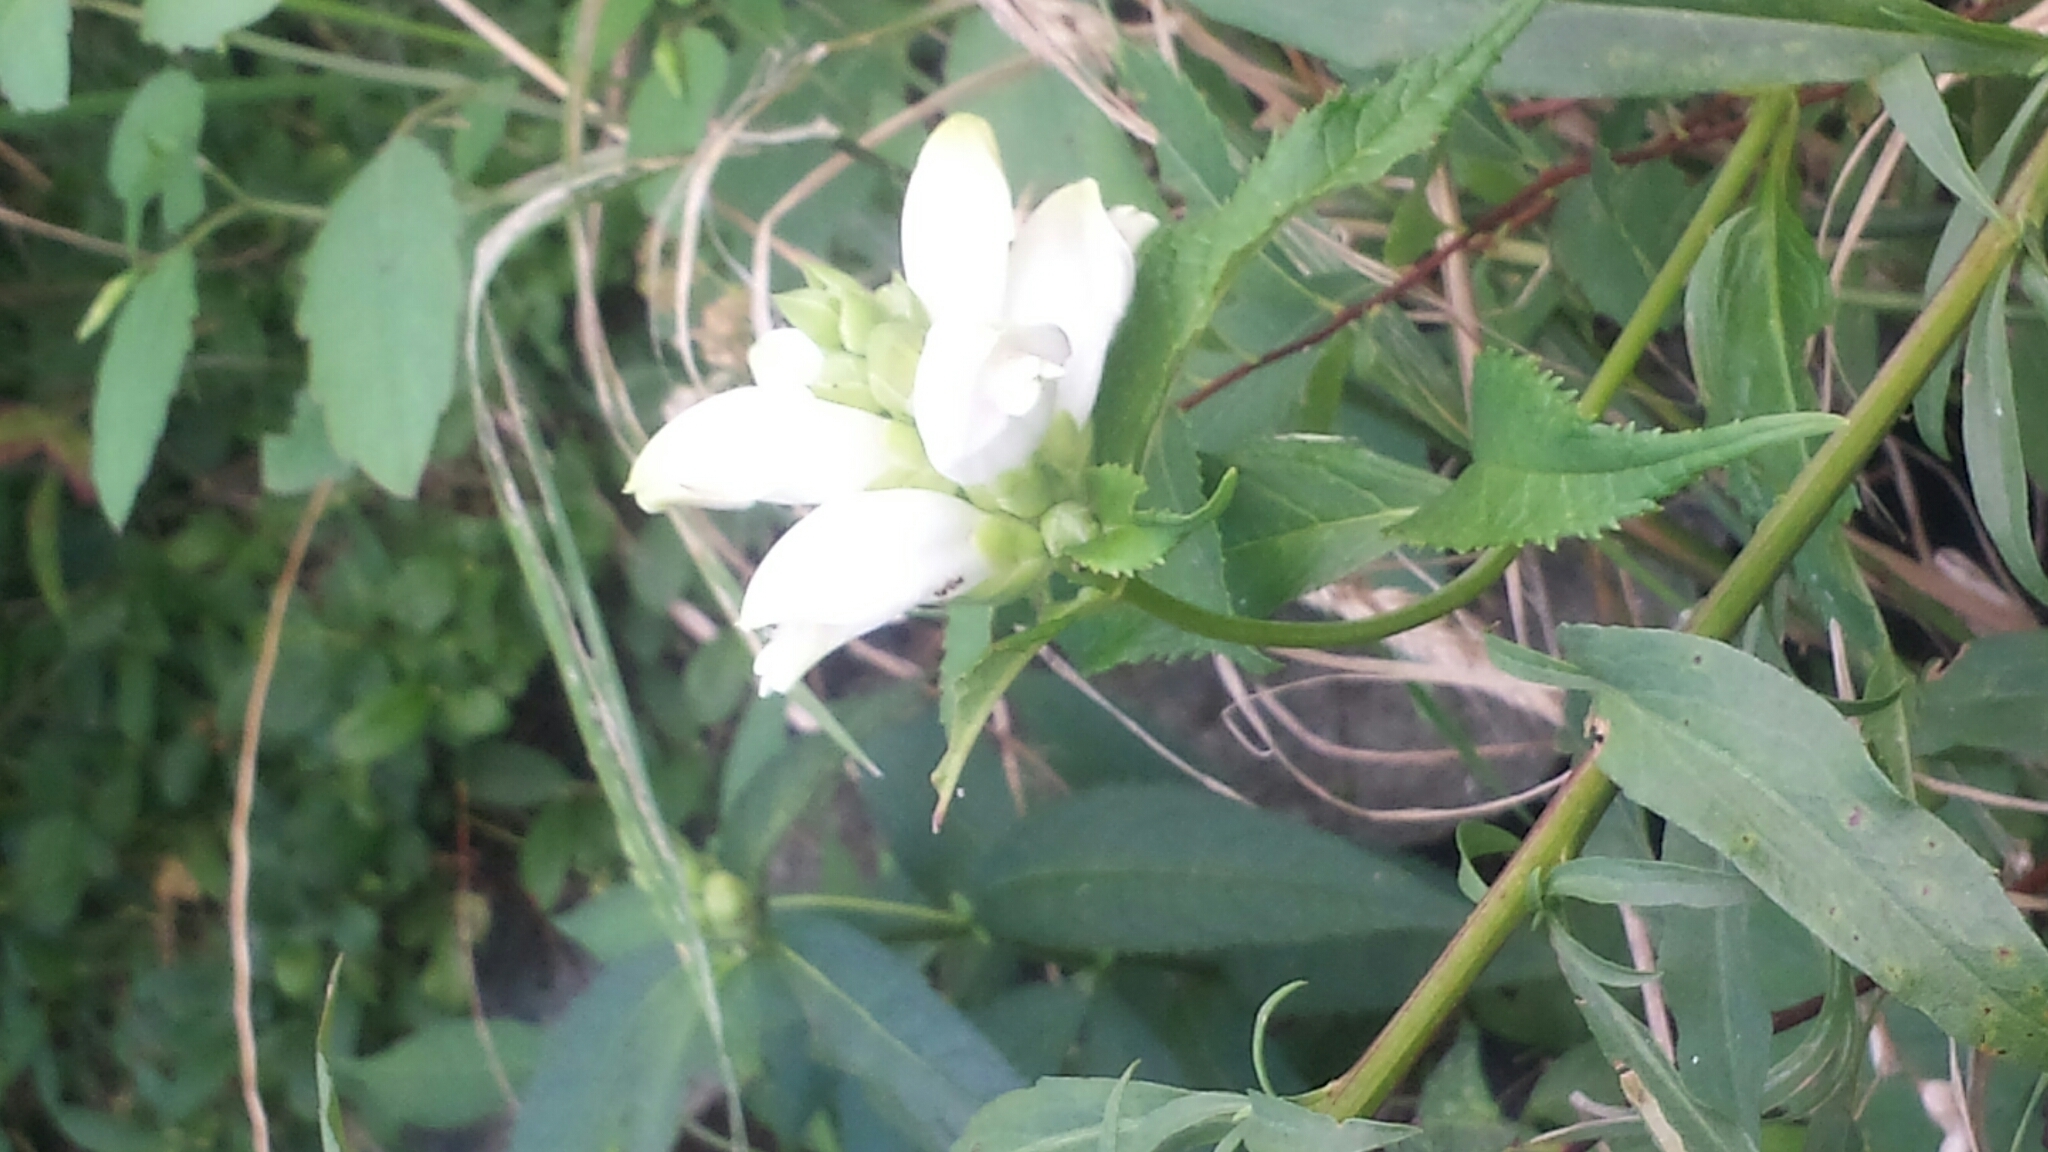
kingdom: Plantae
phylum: Tracheophyta
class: Magnoliopsida
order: Lamiales
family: Plantaginaceae
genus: Chelone
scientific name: Chelone glabra
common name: Snakehead
